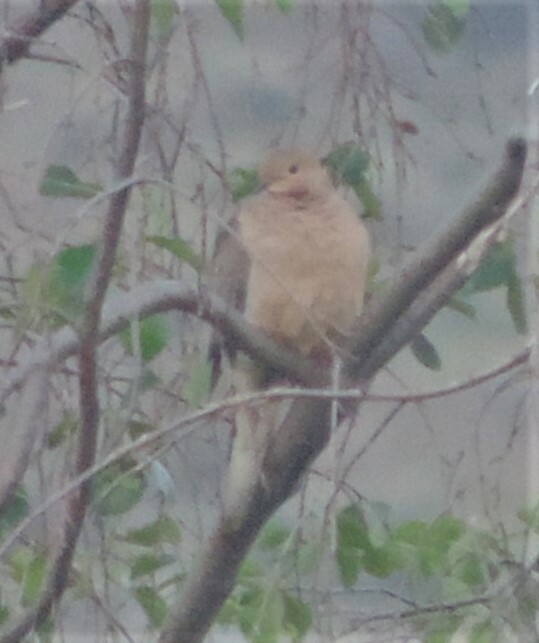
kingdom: Animalia
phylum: Chordata
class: Aves
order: Columbiformes
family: Columbidae
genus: Zenaida
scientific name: Zenaida macroura
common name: Mourning dove
